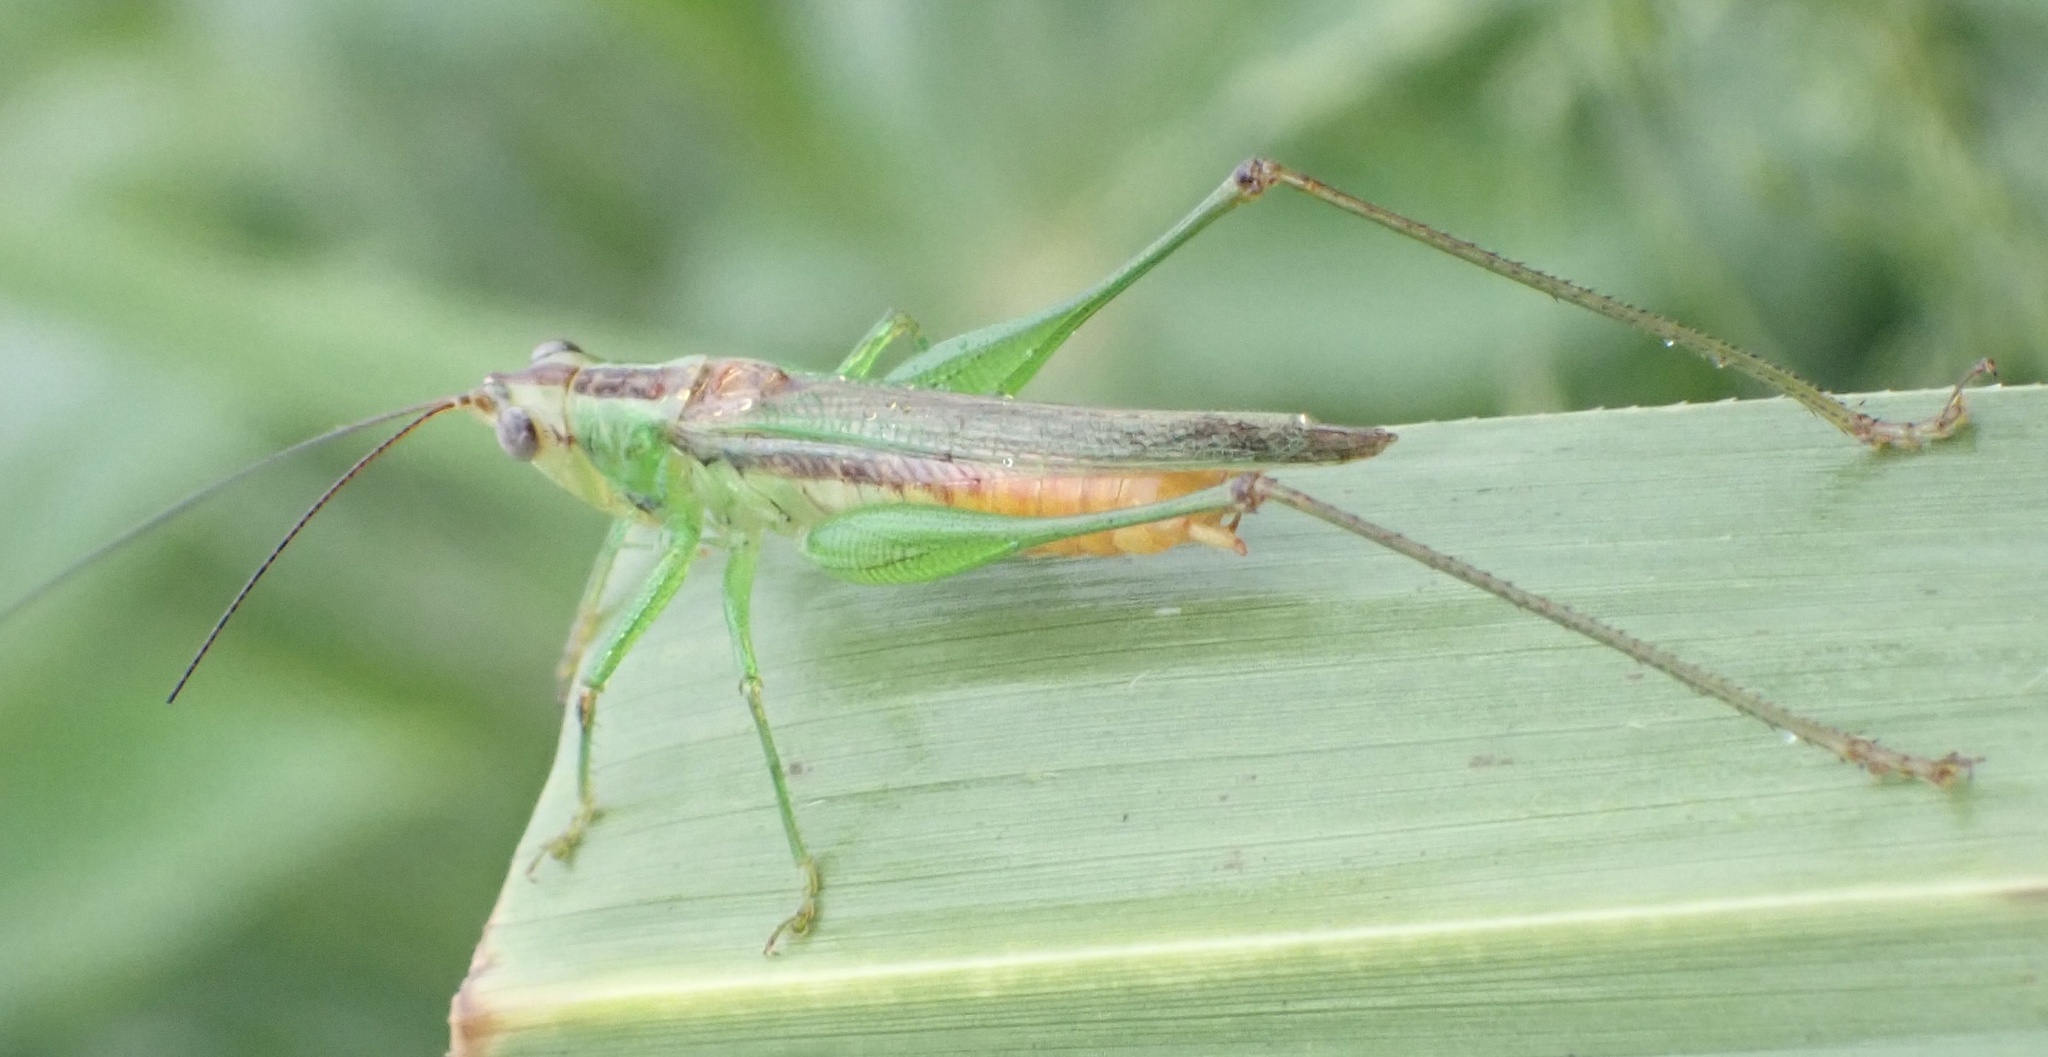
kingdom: Animalia
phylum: Arthropoda
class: Insecta
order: Orthoptera
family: Tettigoniidae
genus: Conocephalus
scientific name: Conocephalus longipennis
